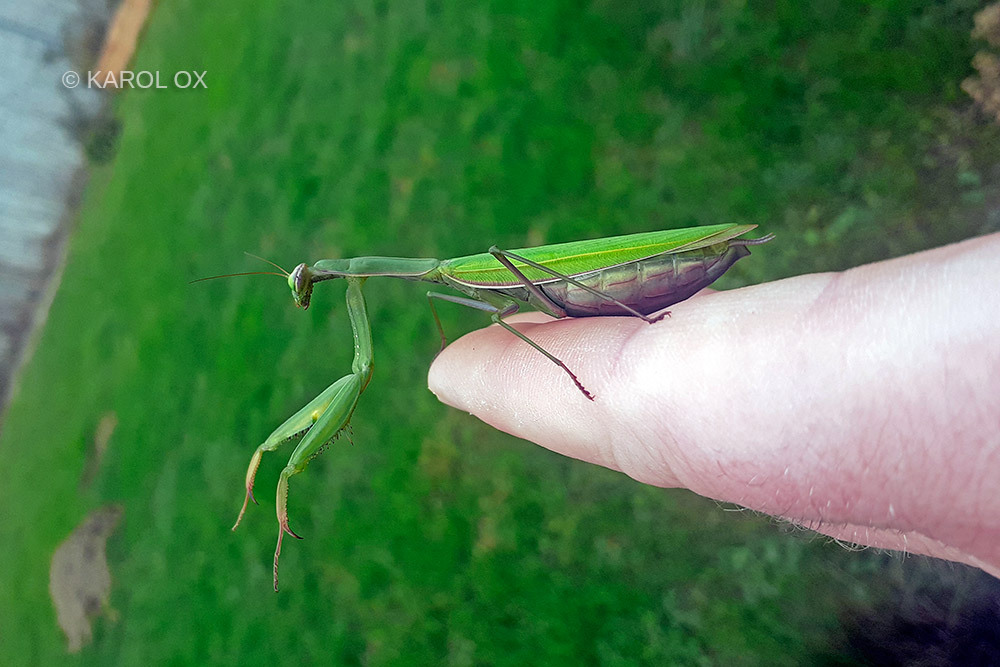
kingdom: Animalia
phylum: Arthropoda
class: Insecta
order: Mantodea
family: Mantidae
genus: Mantis
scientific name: Mantis religiosa
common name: Praying mantis
